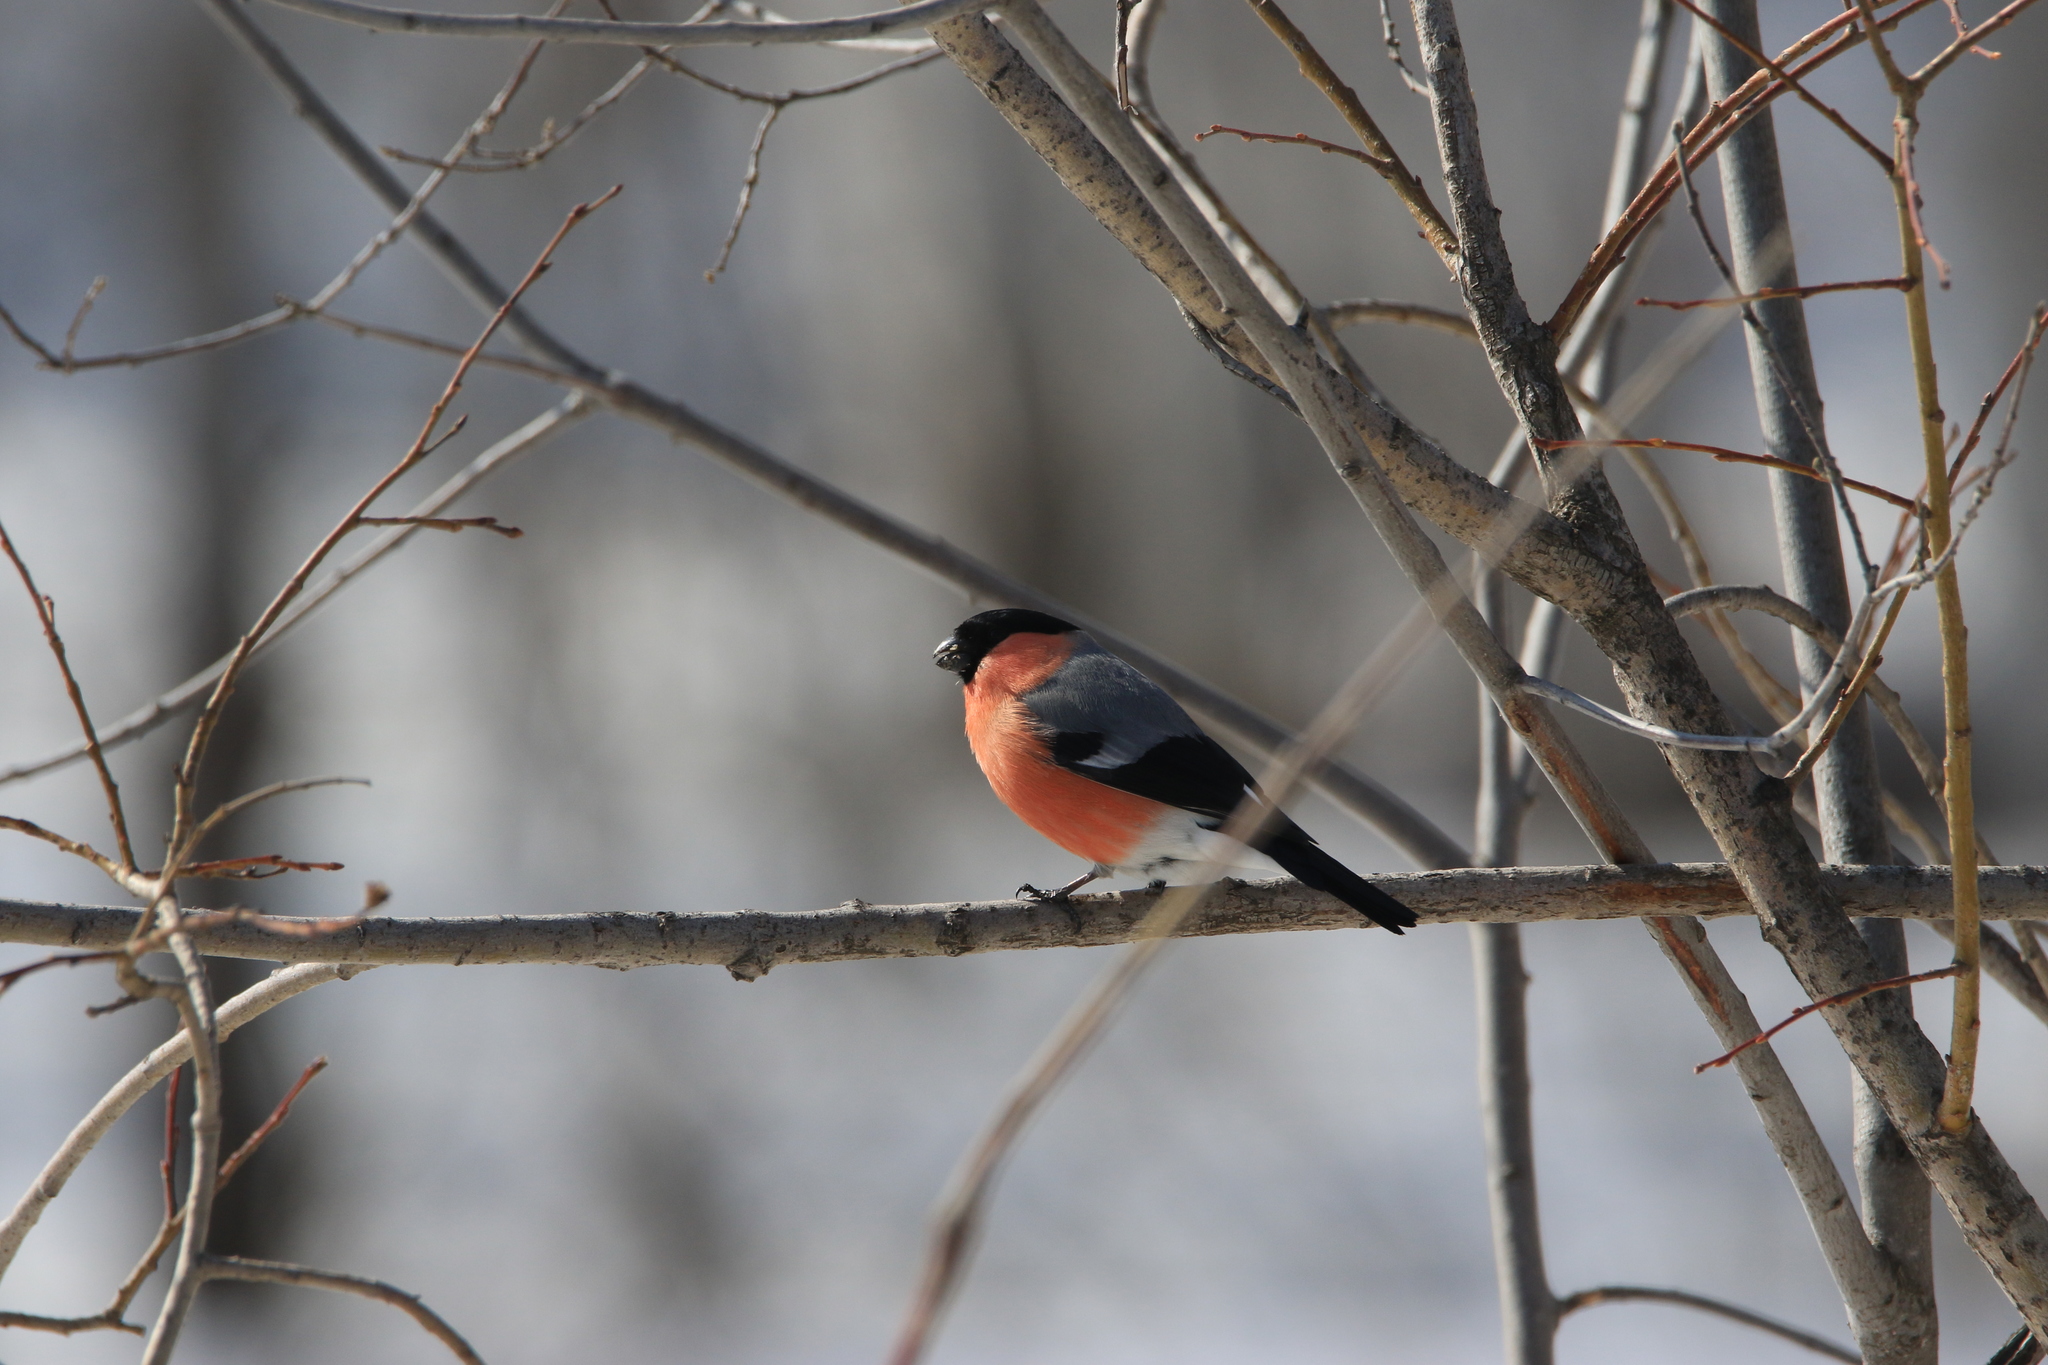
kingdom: Animalia
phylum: Chordata
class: Aves
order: Passeriformes
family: Fringillidae
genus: Pyrrhula
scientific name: Pyrrhula pyrrhula
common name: Eurasian bullfinch
